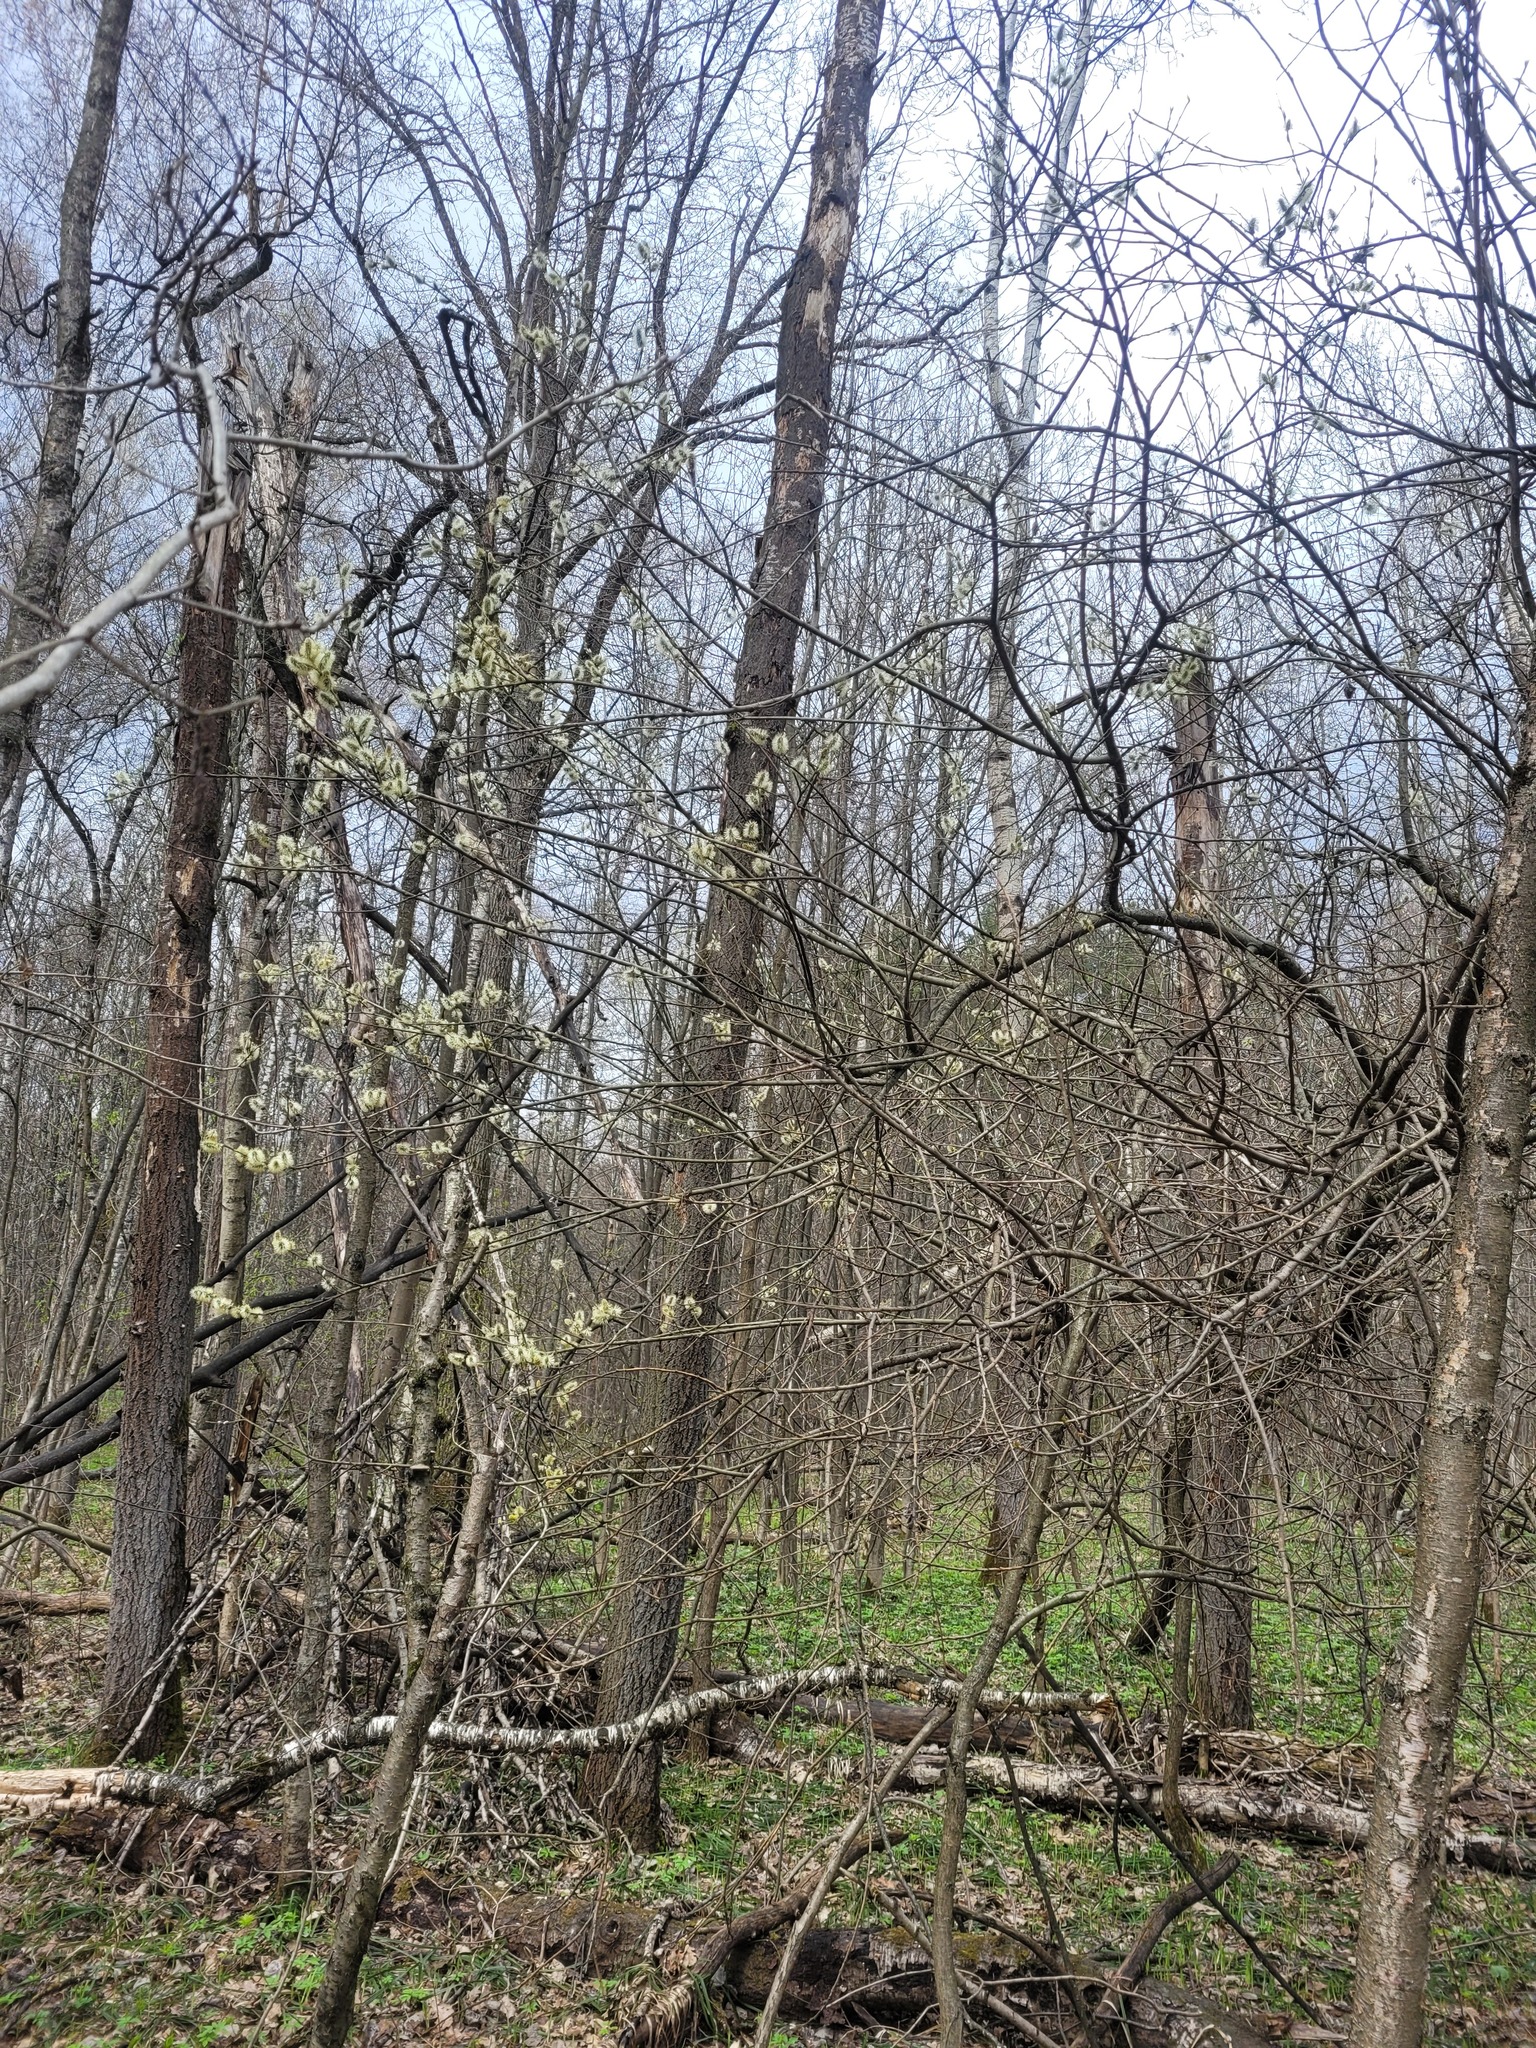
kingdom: Plantae
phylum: Tracheophyta
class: Magnoliopsida
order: Malpighiales
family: Salicaceae
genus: Salix
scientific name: Salix caprea
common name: Goat willow
